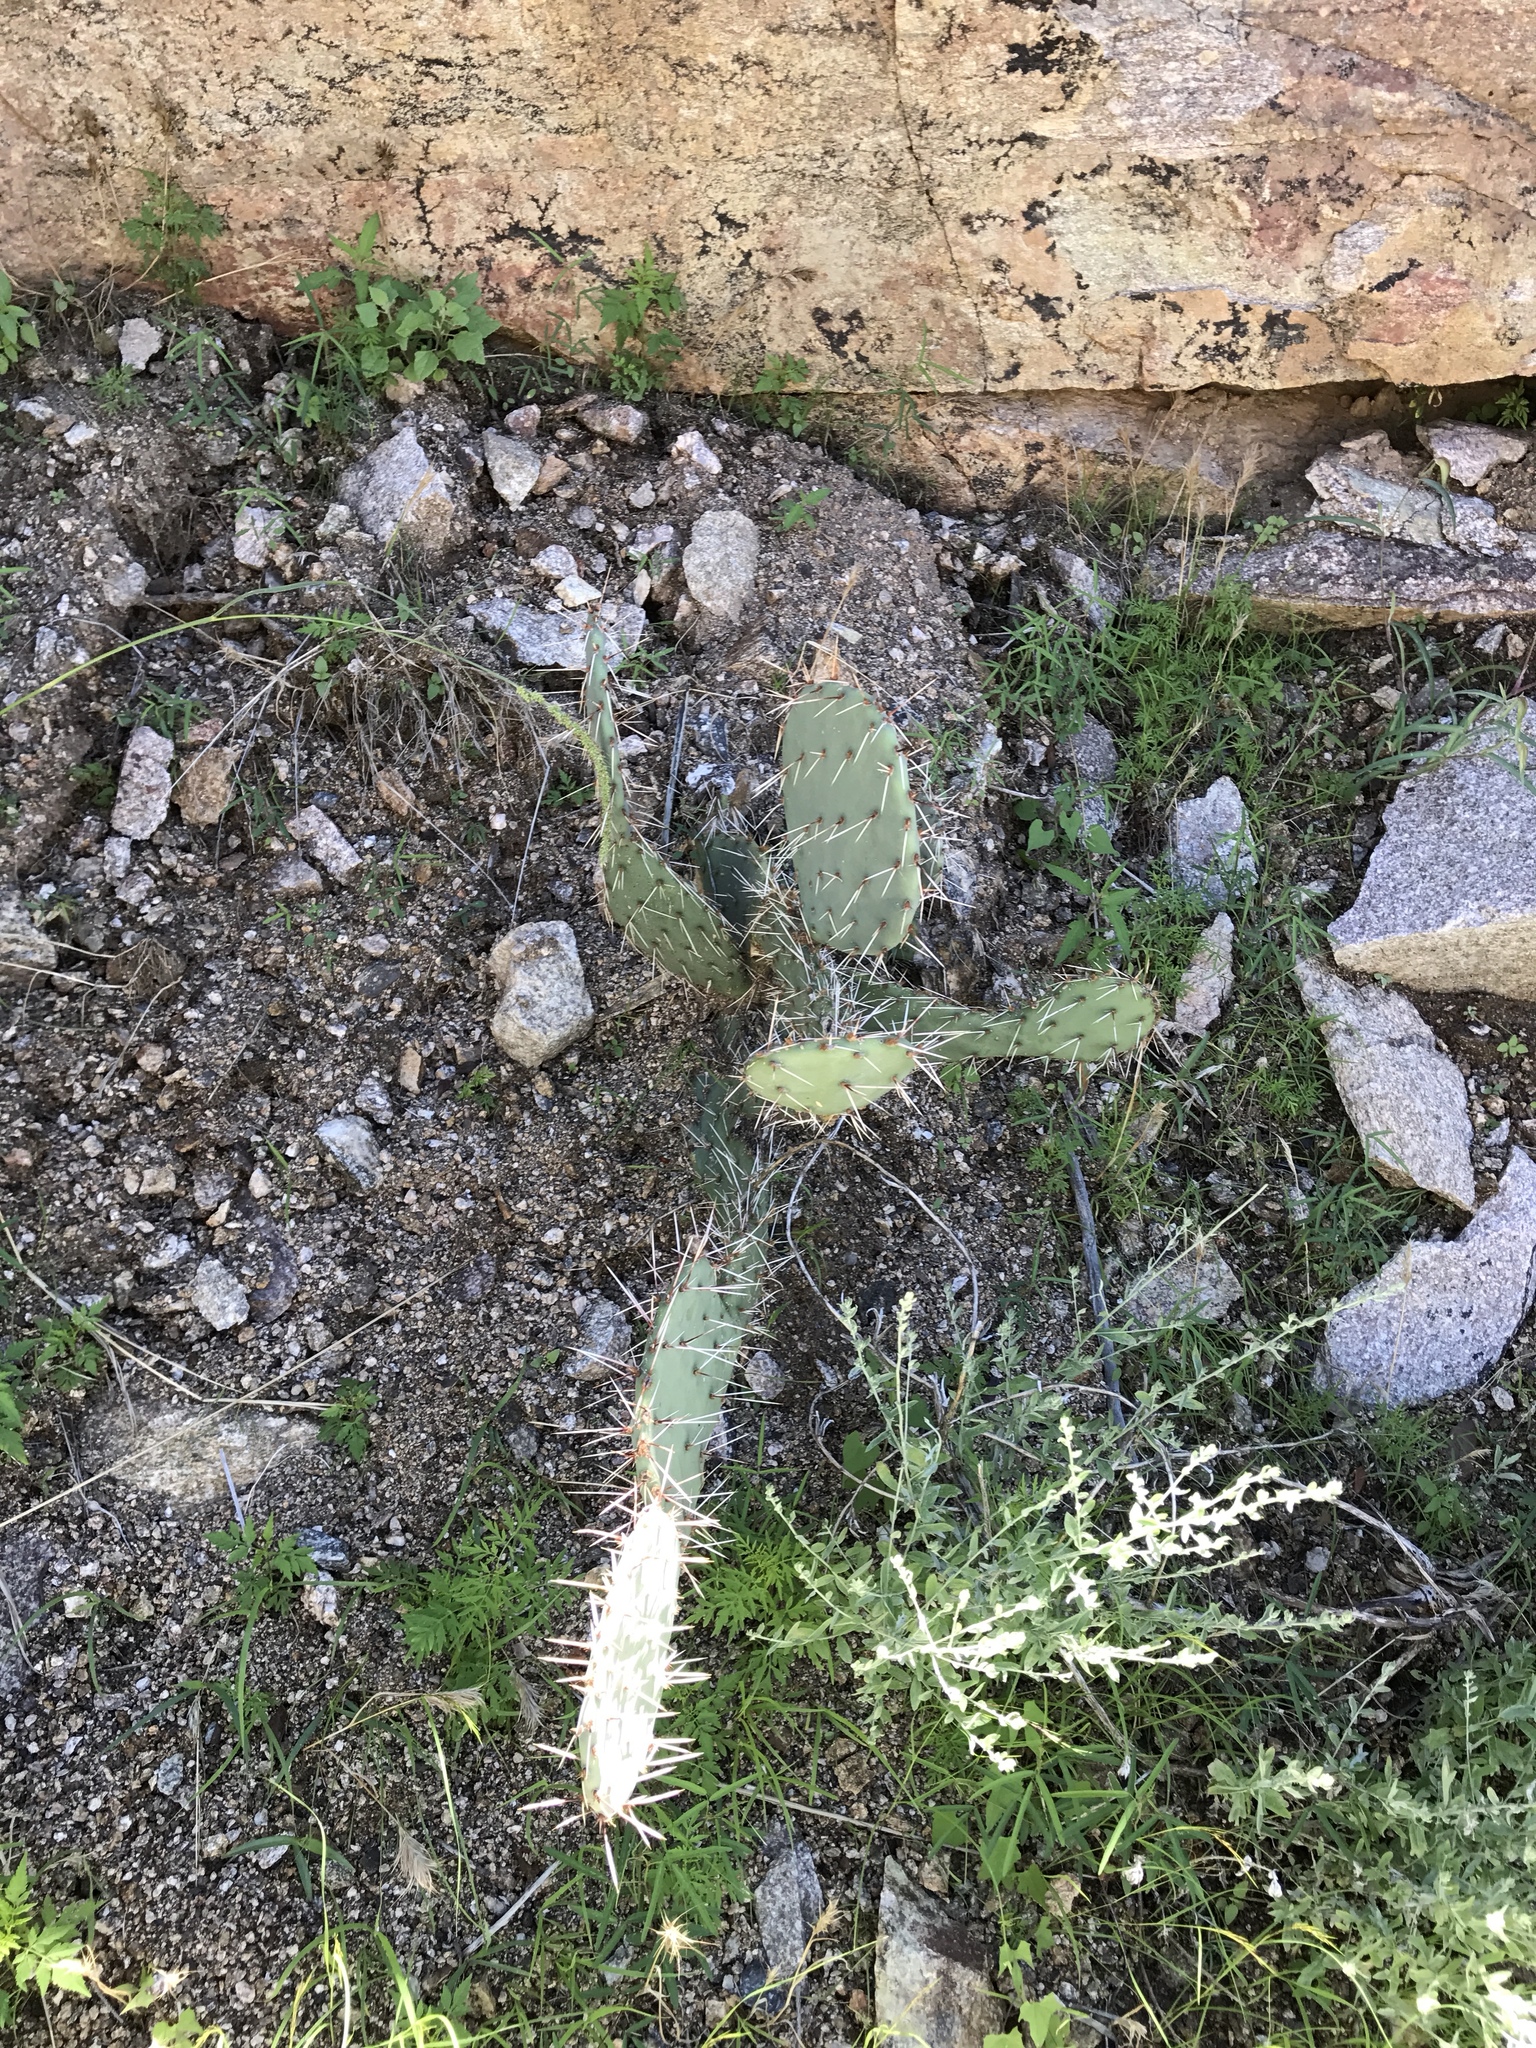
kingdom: Plantae
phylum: Tracheophyta
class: Magnoliopsida
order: Caryophyllales
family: Cactaceae
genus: Opuntia
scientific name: Opuntia engelmannii
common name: Cactus-apple
